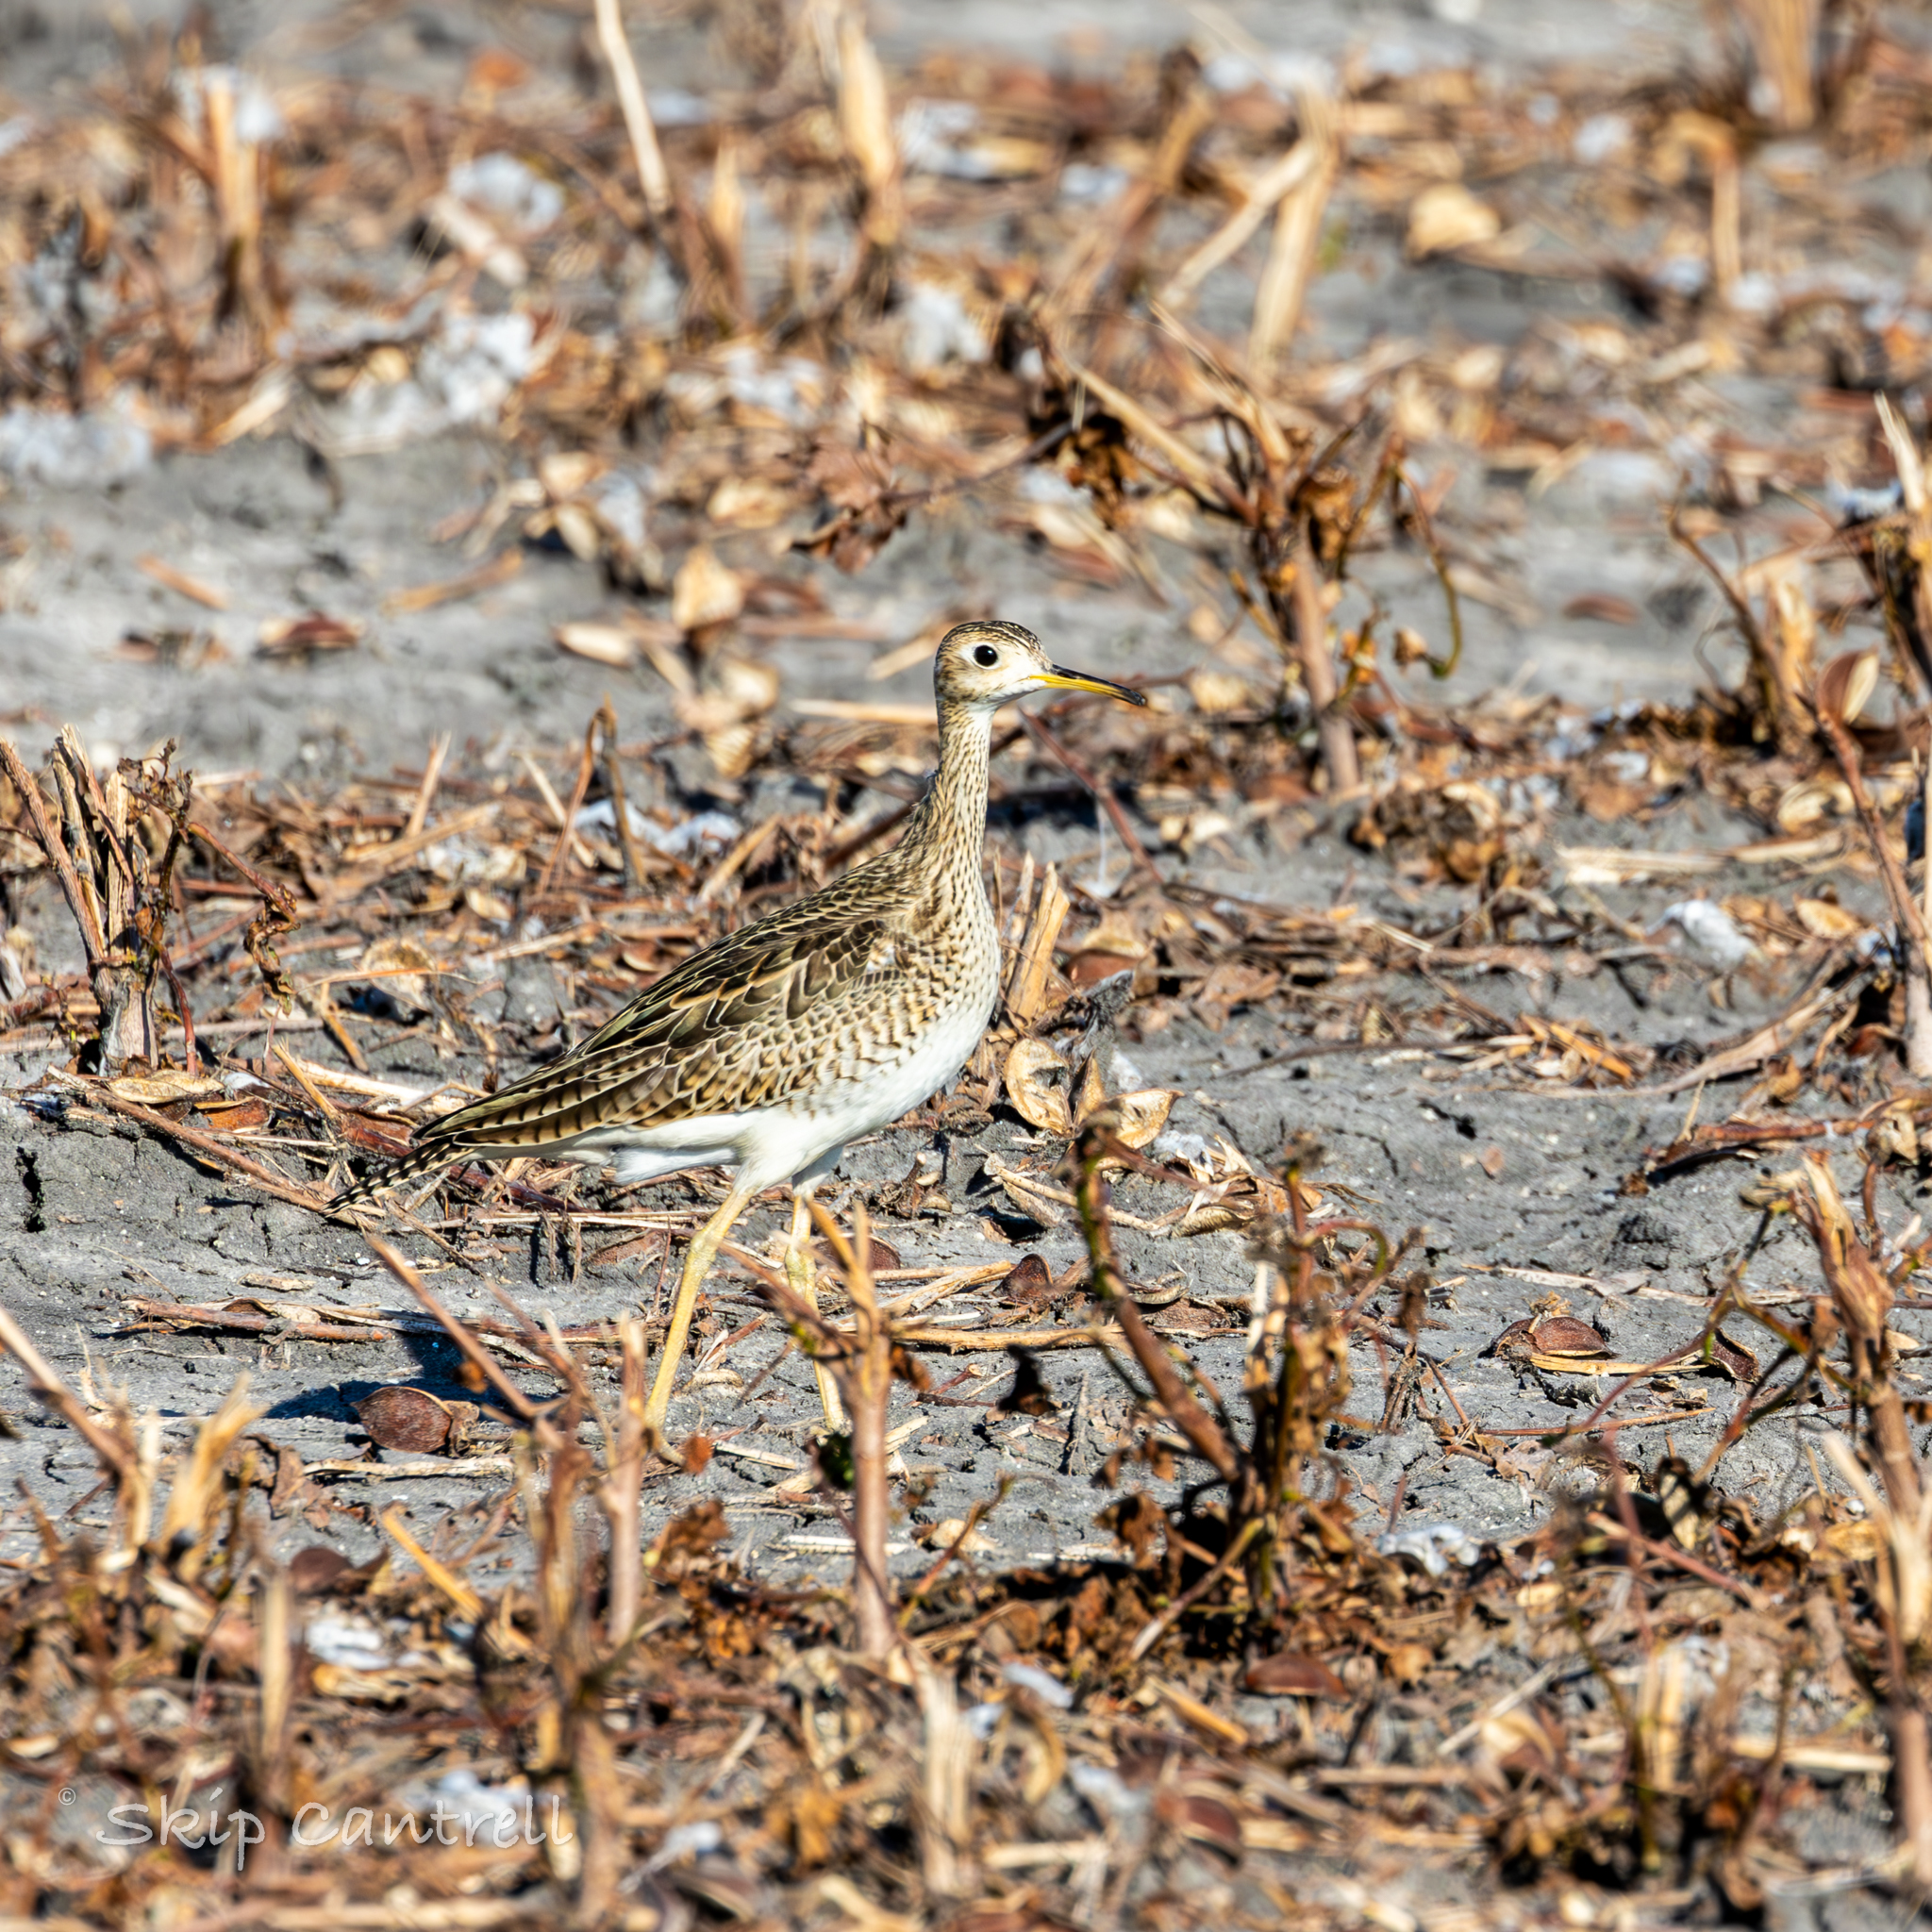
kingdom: Animalia
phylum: Chordata
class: Aves
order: Charadriiformes
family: Scolopacidae
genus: Bartramia
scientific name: Bartramia longicauda
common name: Upland sandpiper
